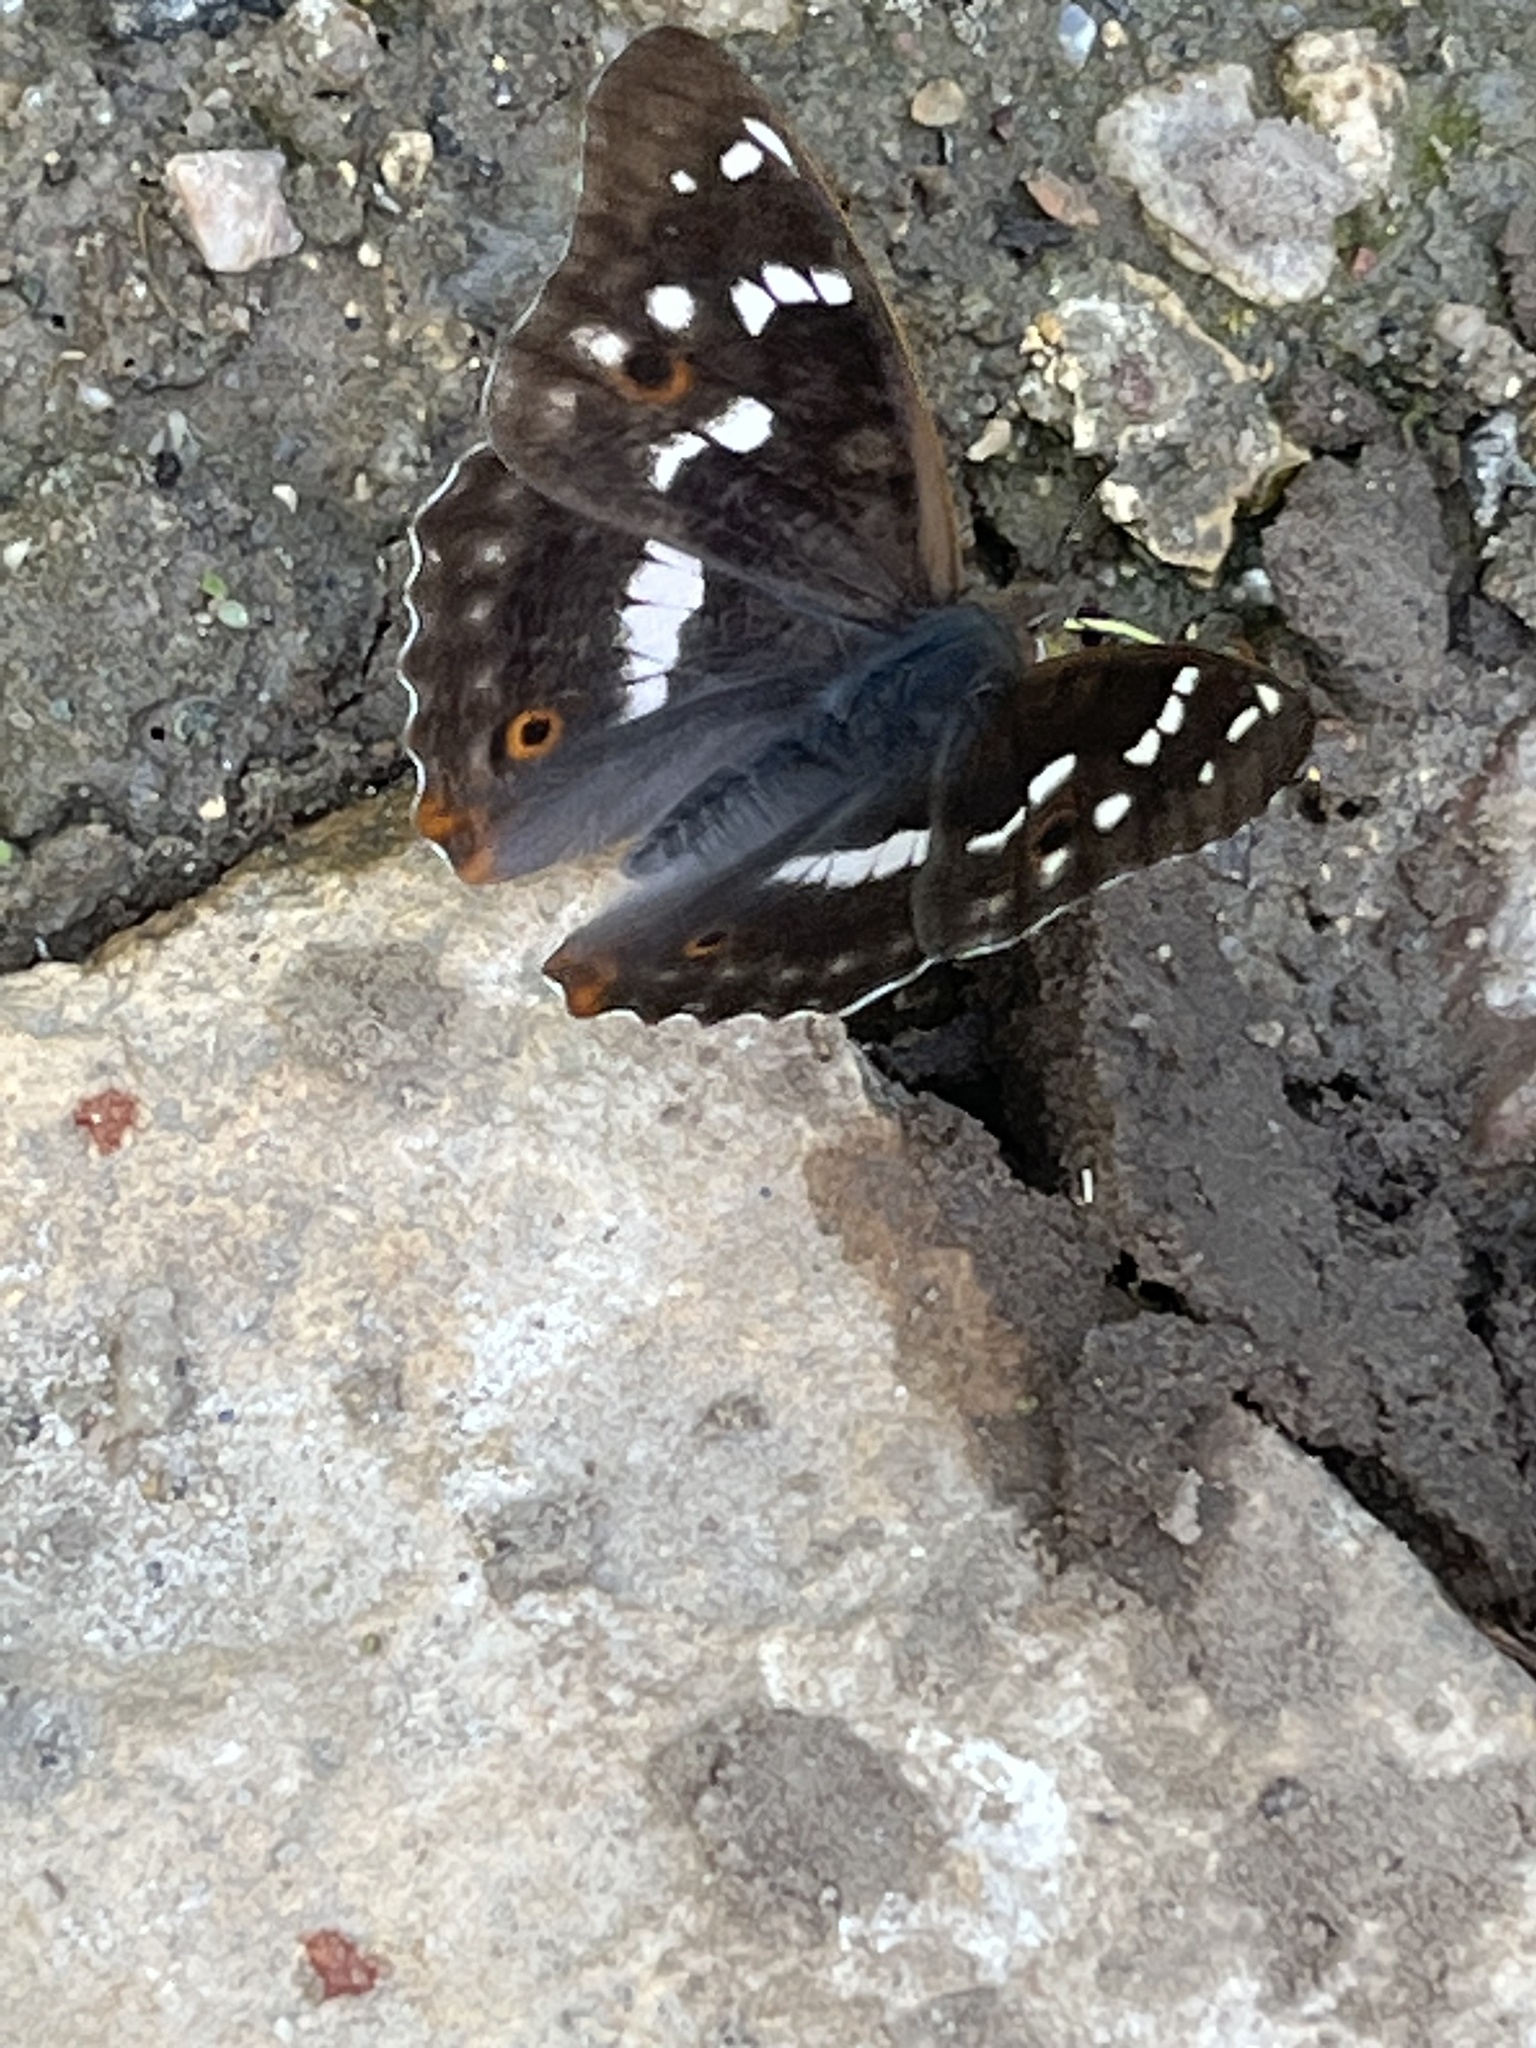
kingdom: Animalia
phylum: Arthropoda
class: Insecta
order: Lepidoptera
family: Nymphalidae
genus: Apatura
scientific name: Apatura ilia
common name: Lesser purple emperor
